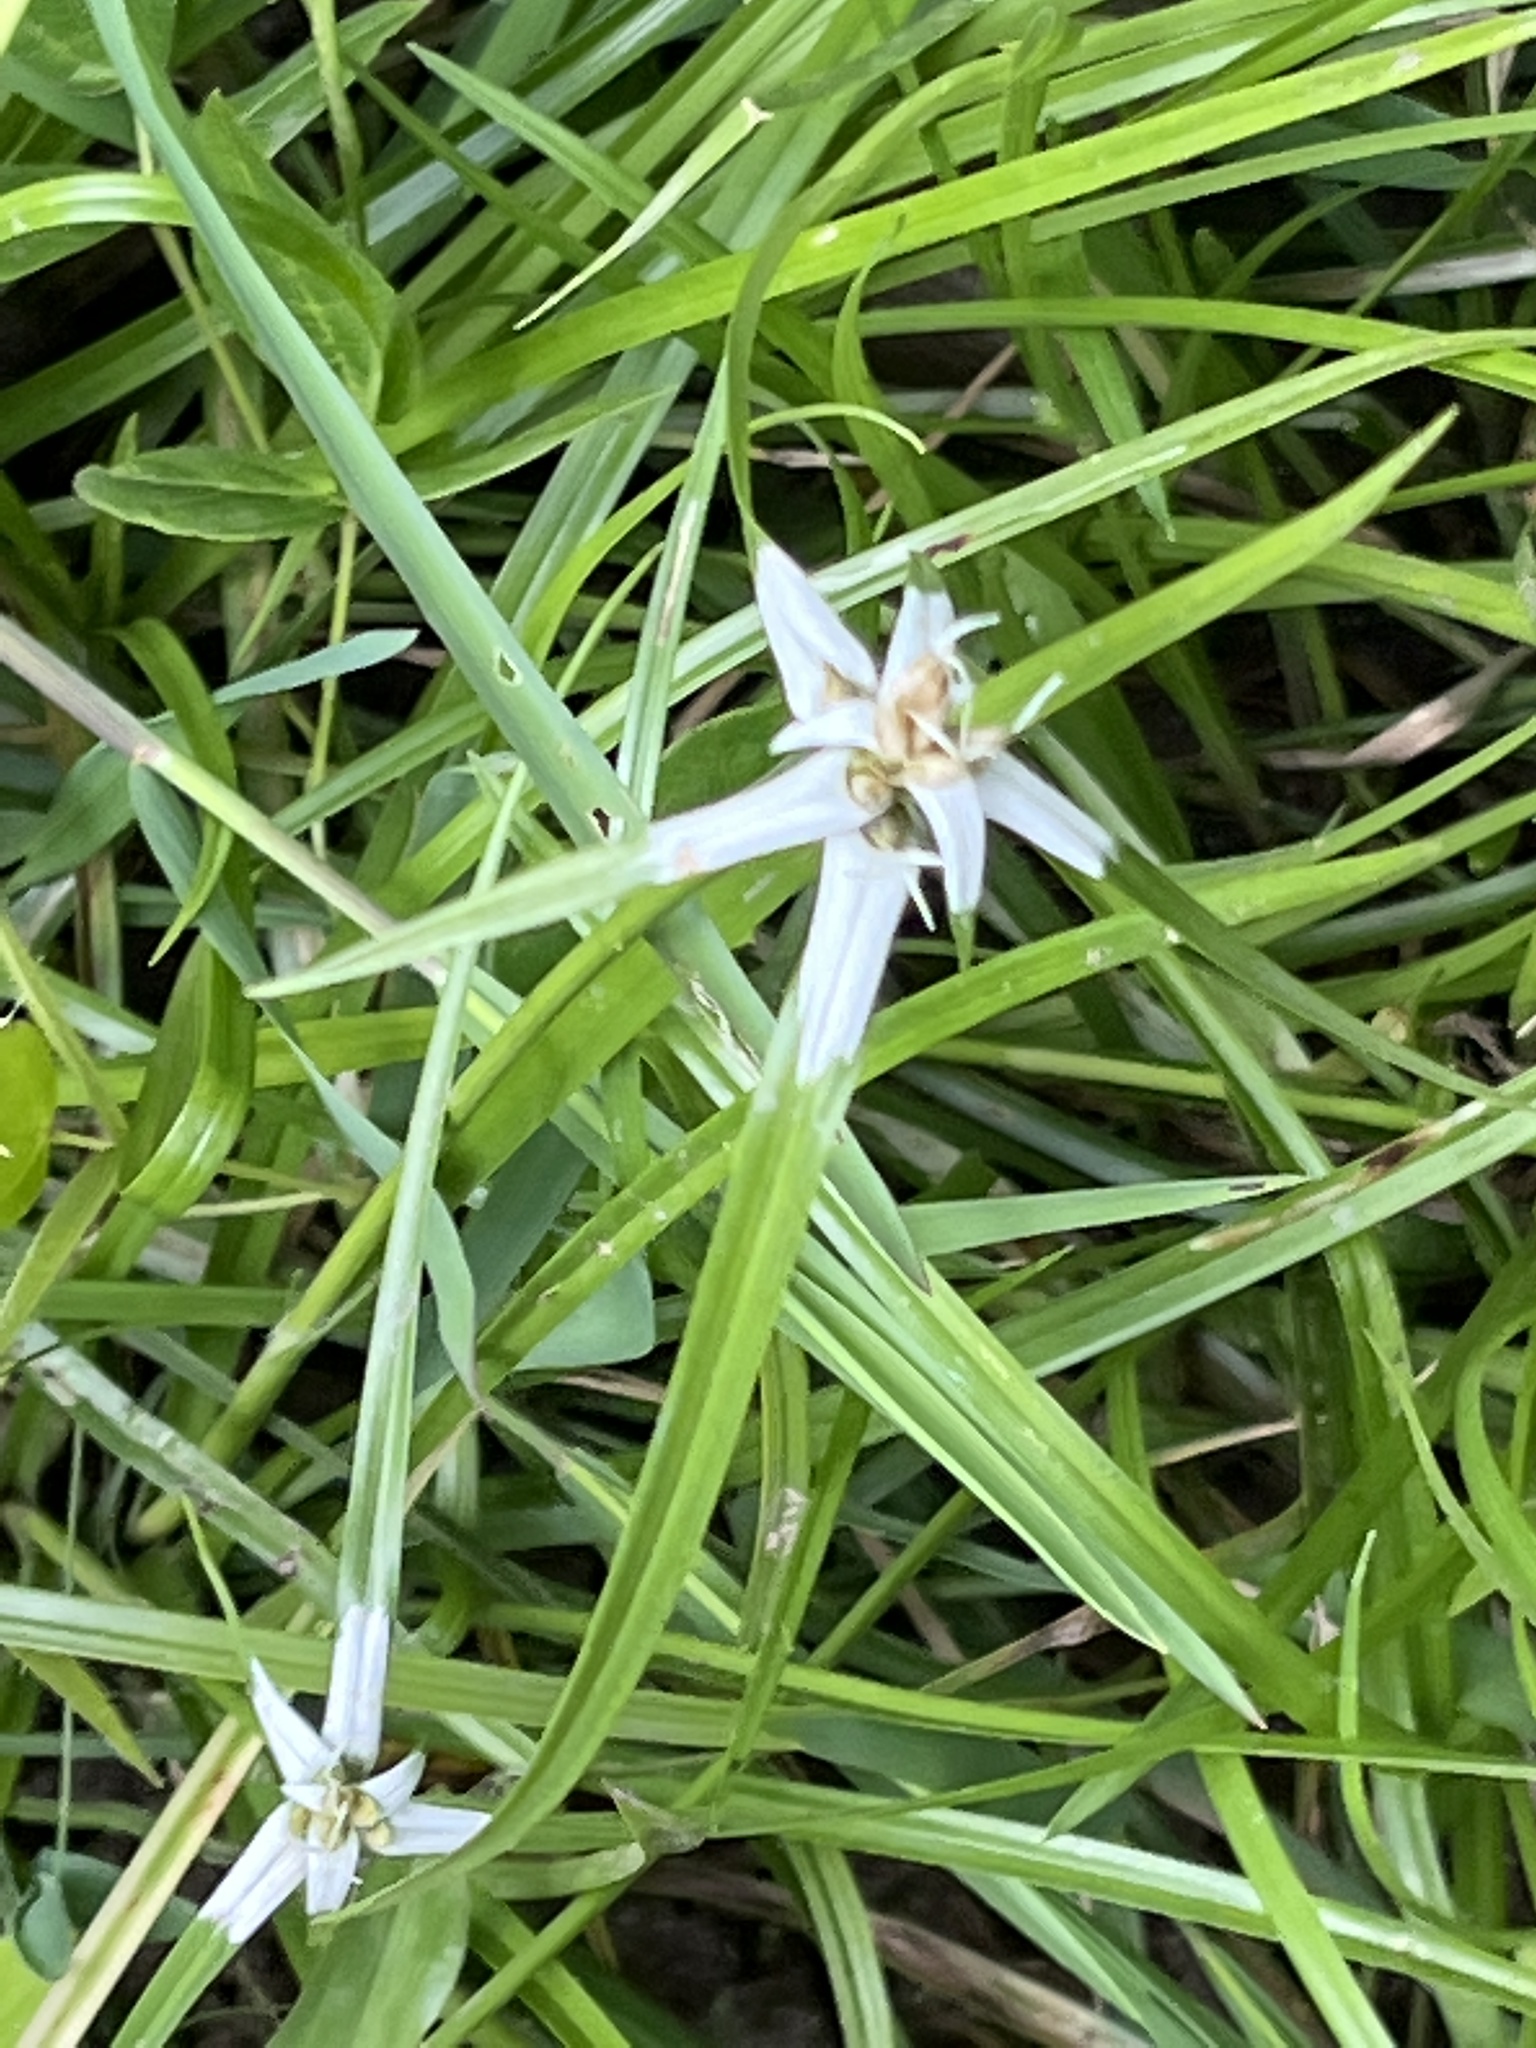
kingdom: Plantae
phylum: Tracheophyta
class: Liliopsida
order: Poales
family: Cyperaceae
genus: Rhynchospora
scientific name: Rhynchospora pura
